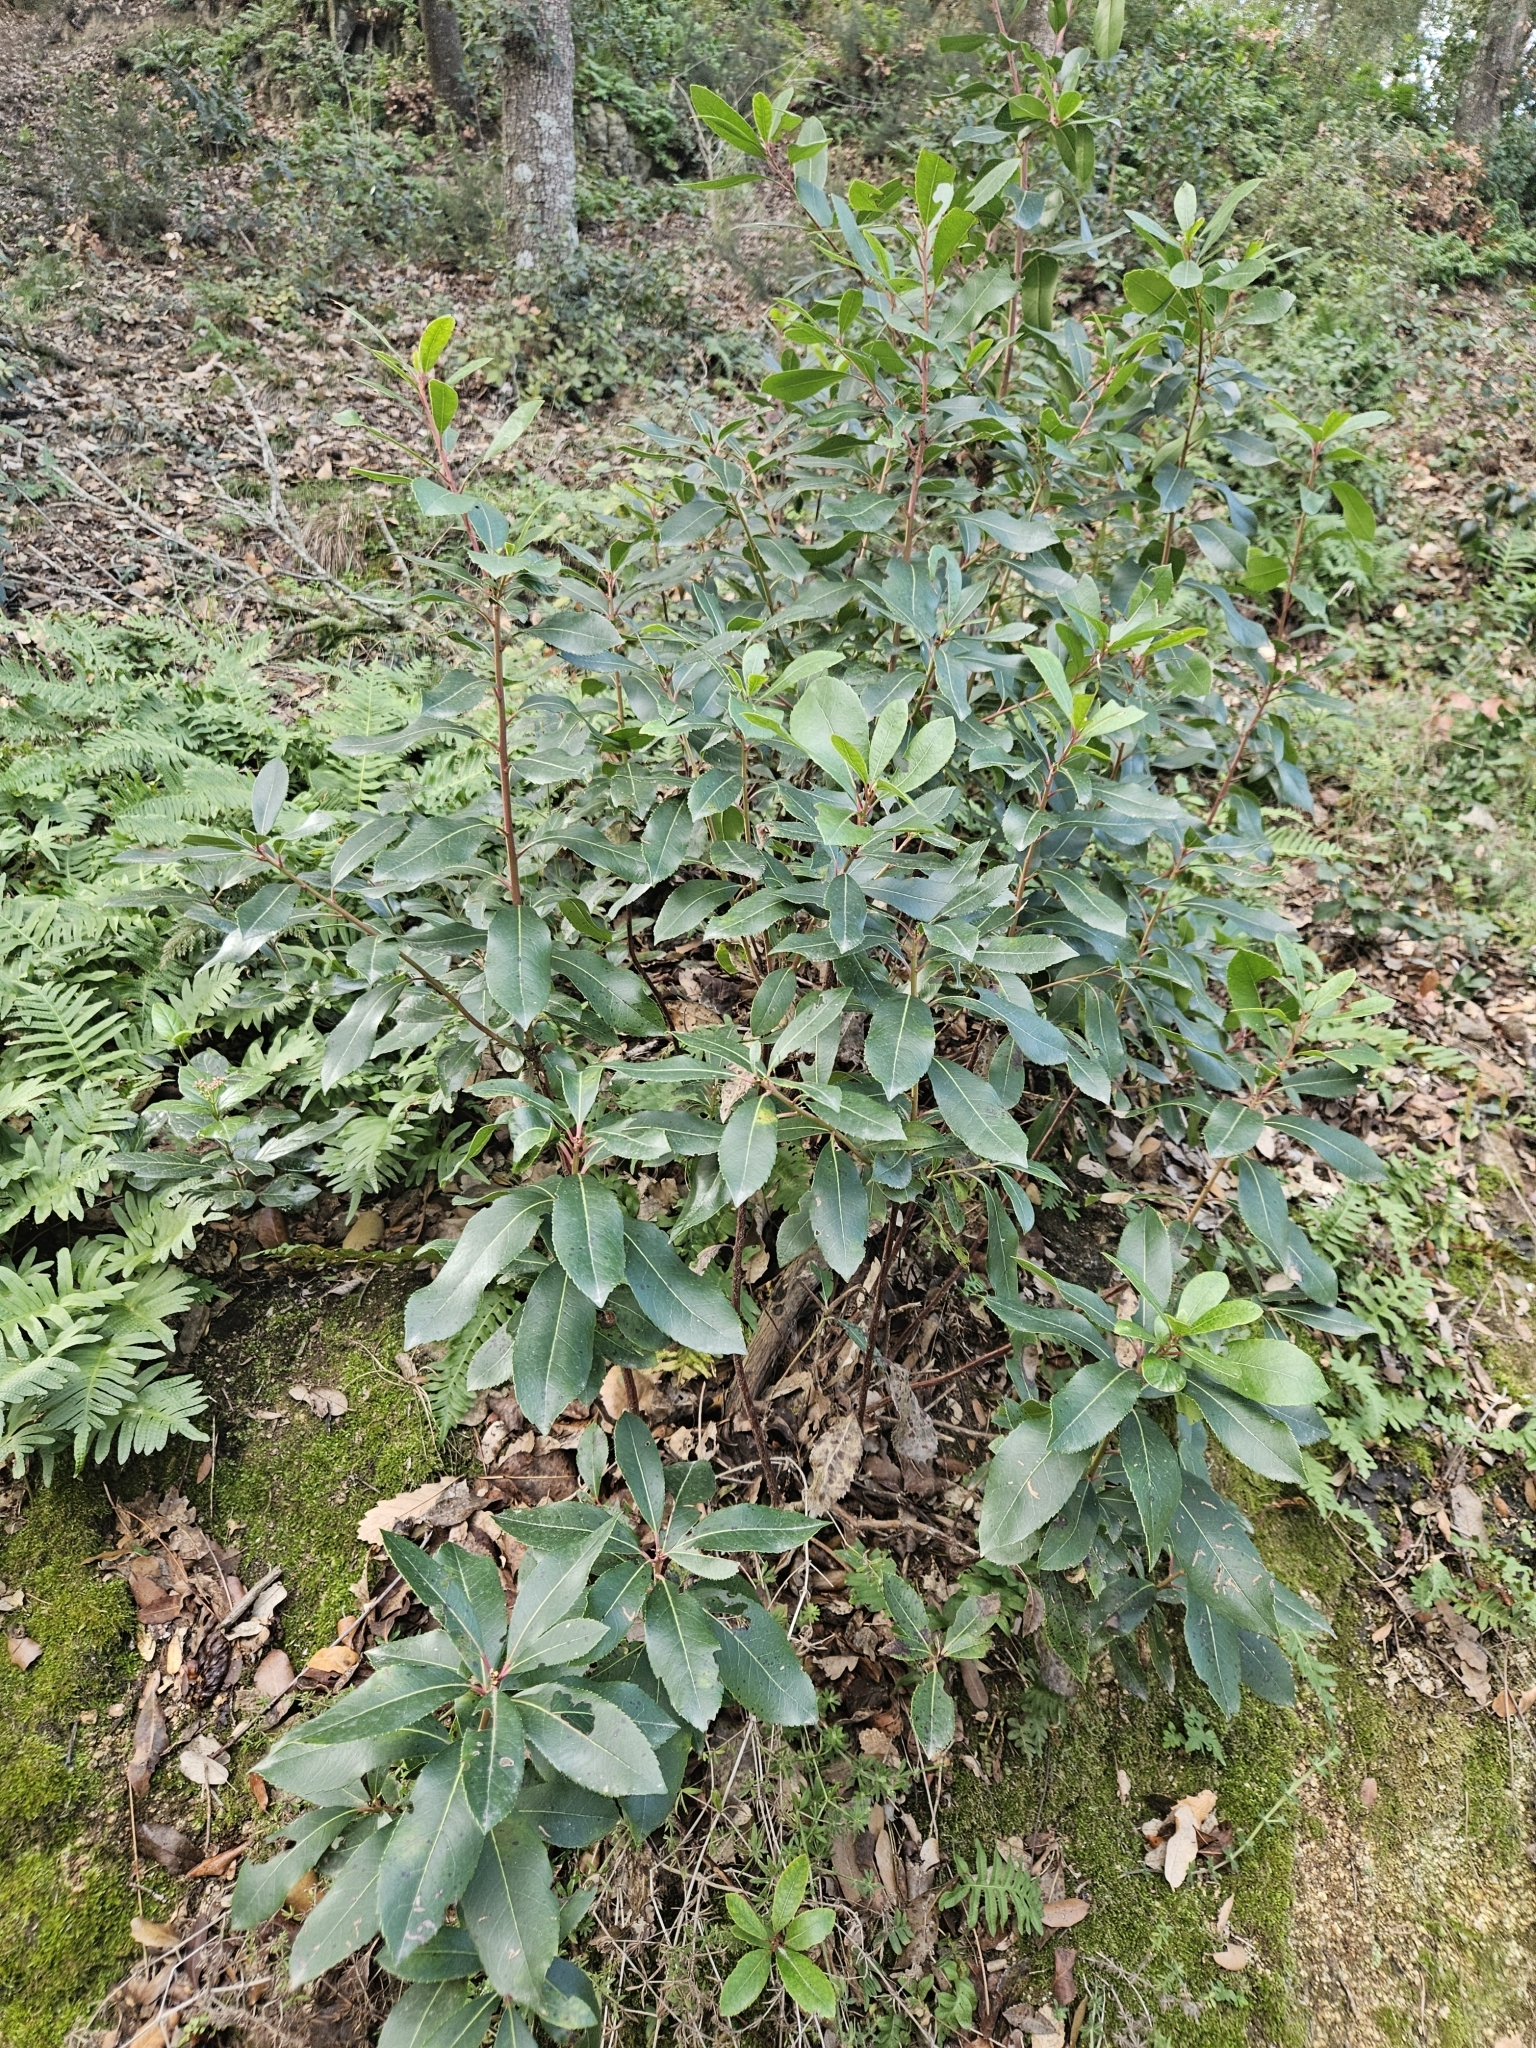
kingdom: Plantae
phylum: Tracheophyta
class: Magnoliopsida
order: Ericales
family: Ericaceae
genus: Arbutus
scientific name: Arbutus unedo
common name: Strawberry-tree
